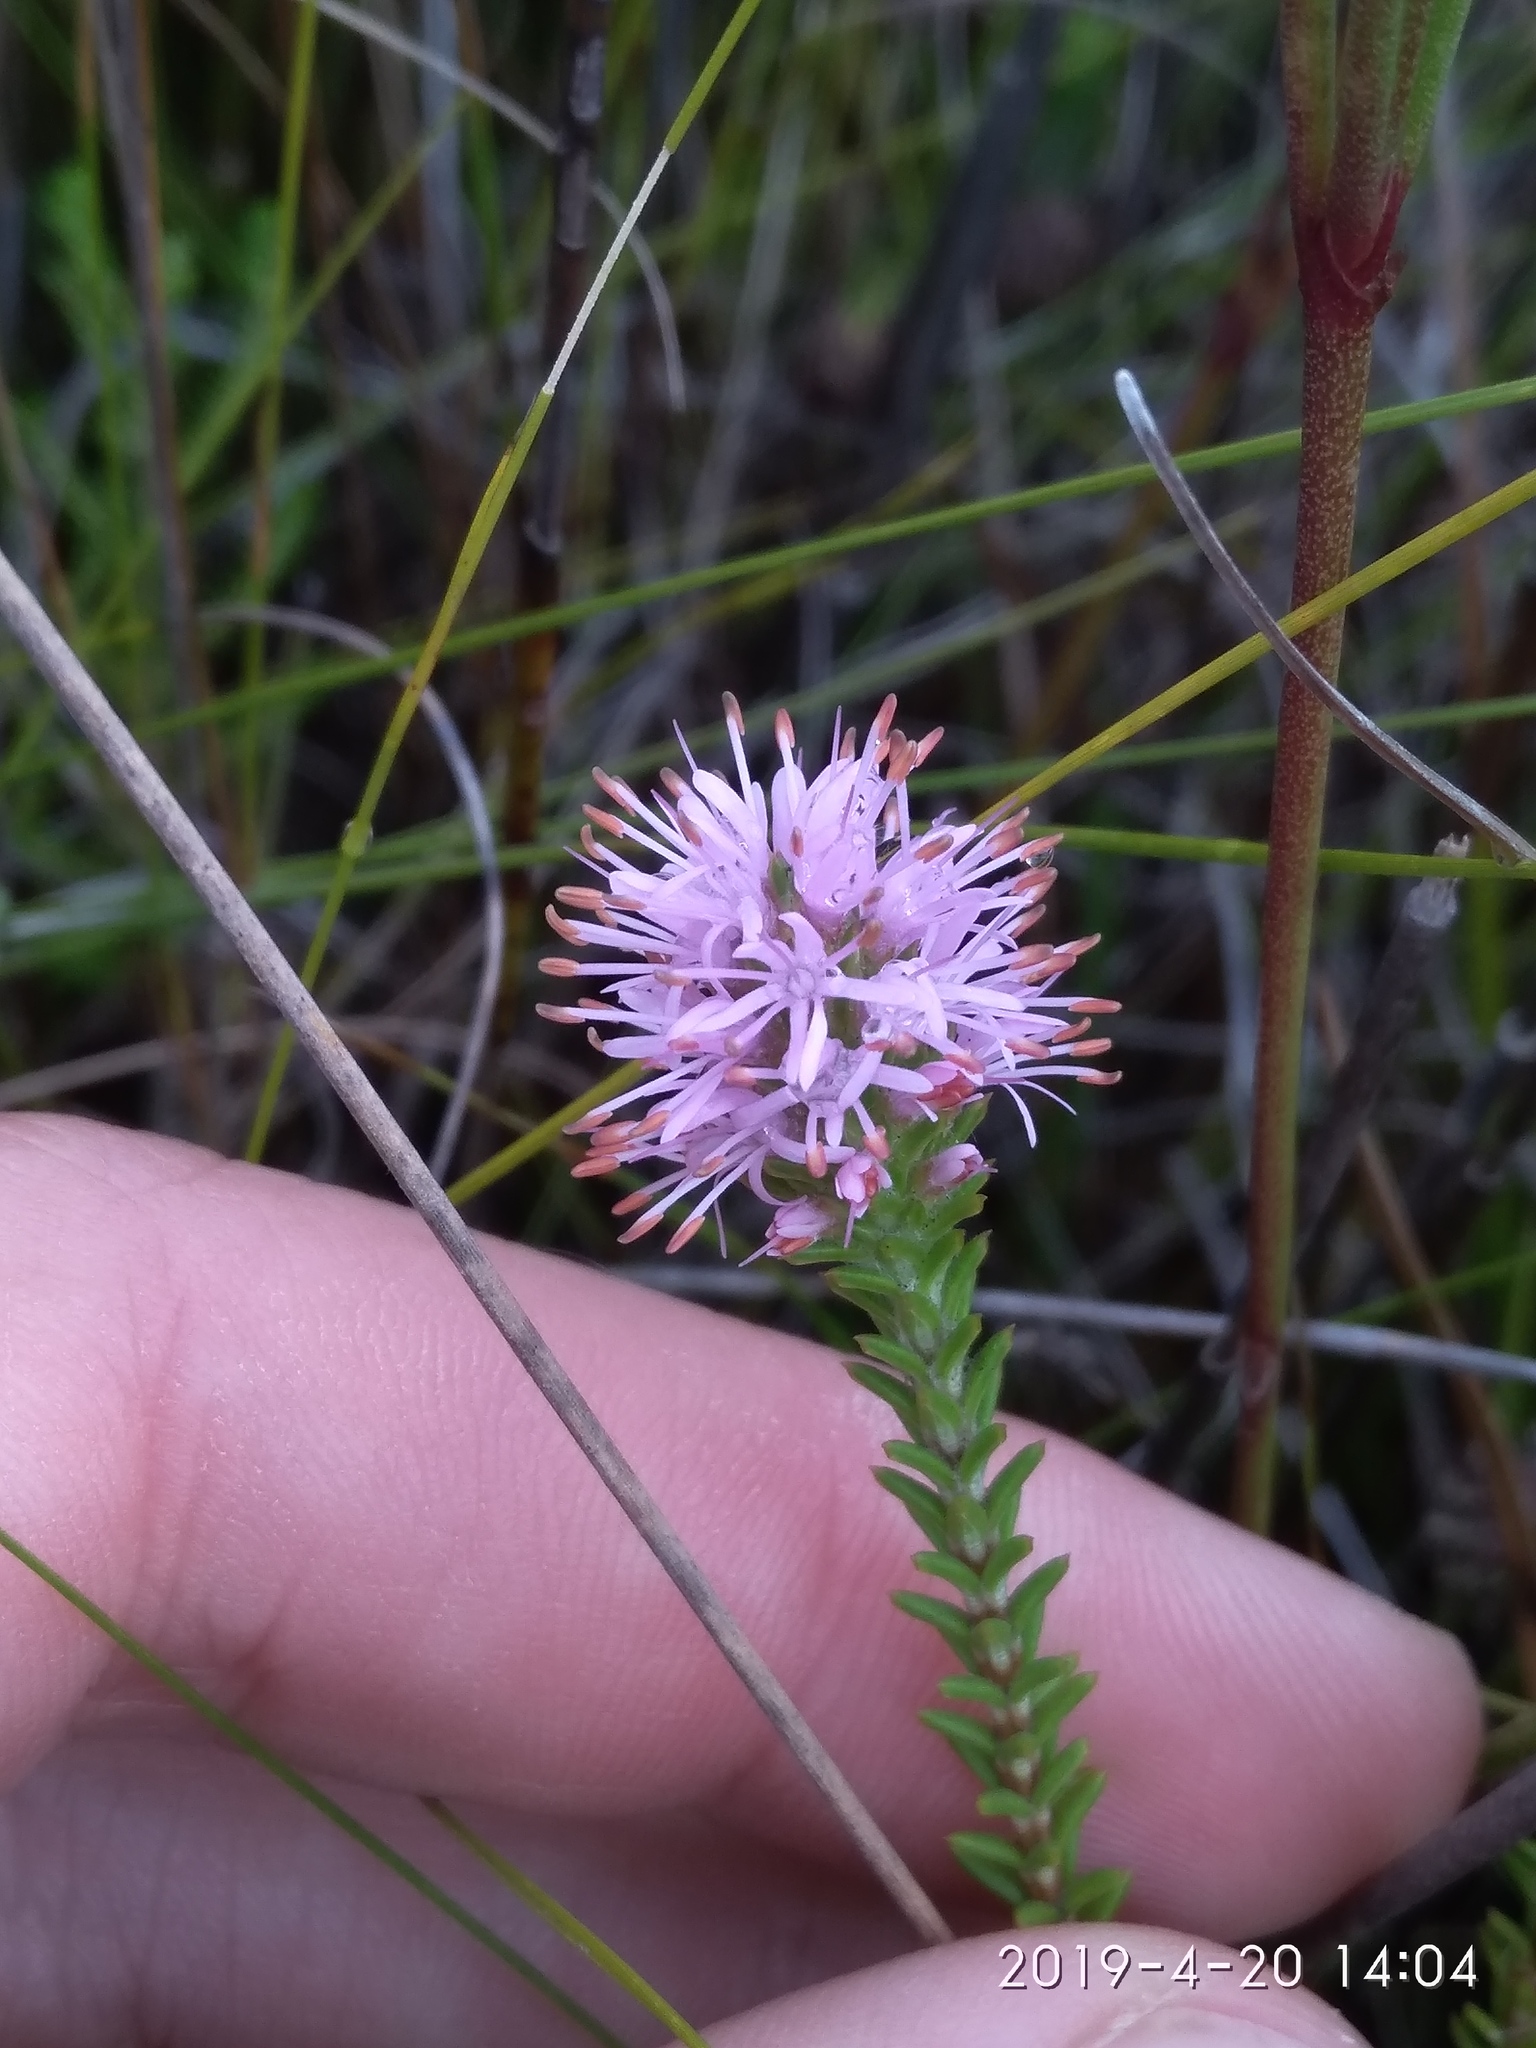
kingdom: Plantae
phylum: Tracheophyta
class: Magnoliopsida
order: Lamiales
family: Stilbaceae
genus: Stilbe
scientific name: Stilbe ericoides
